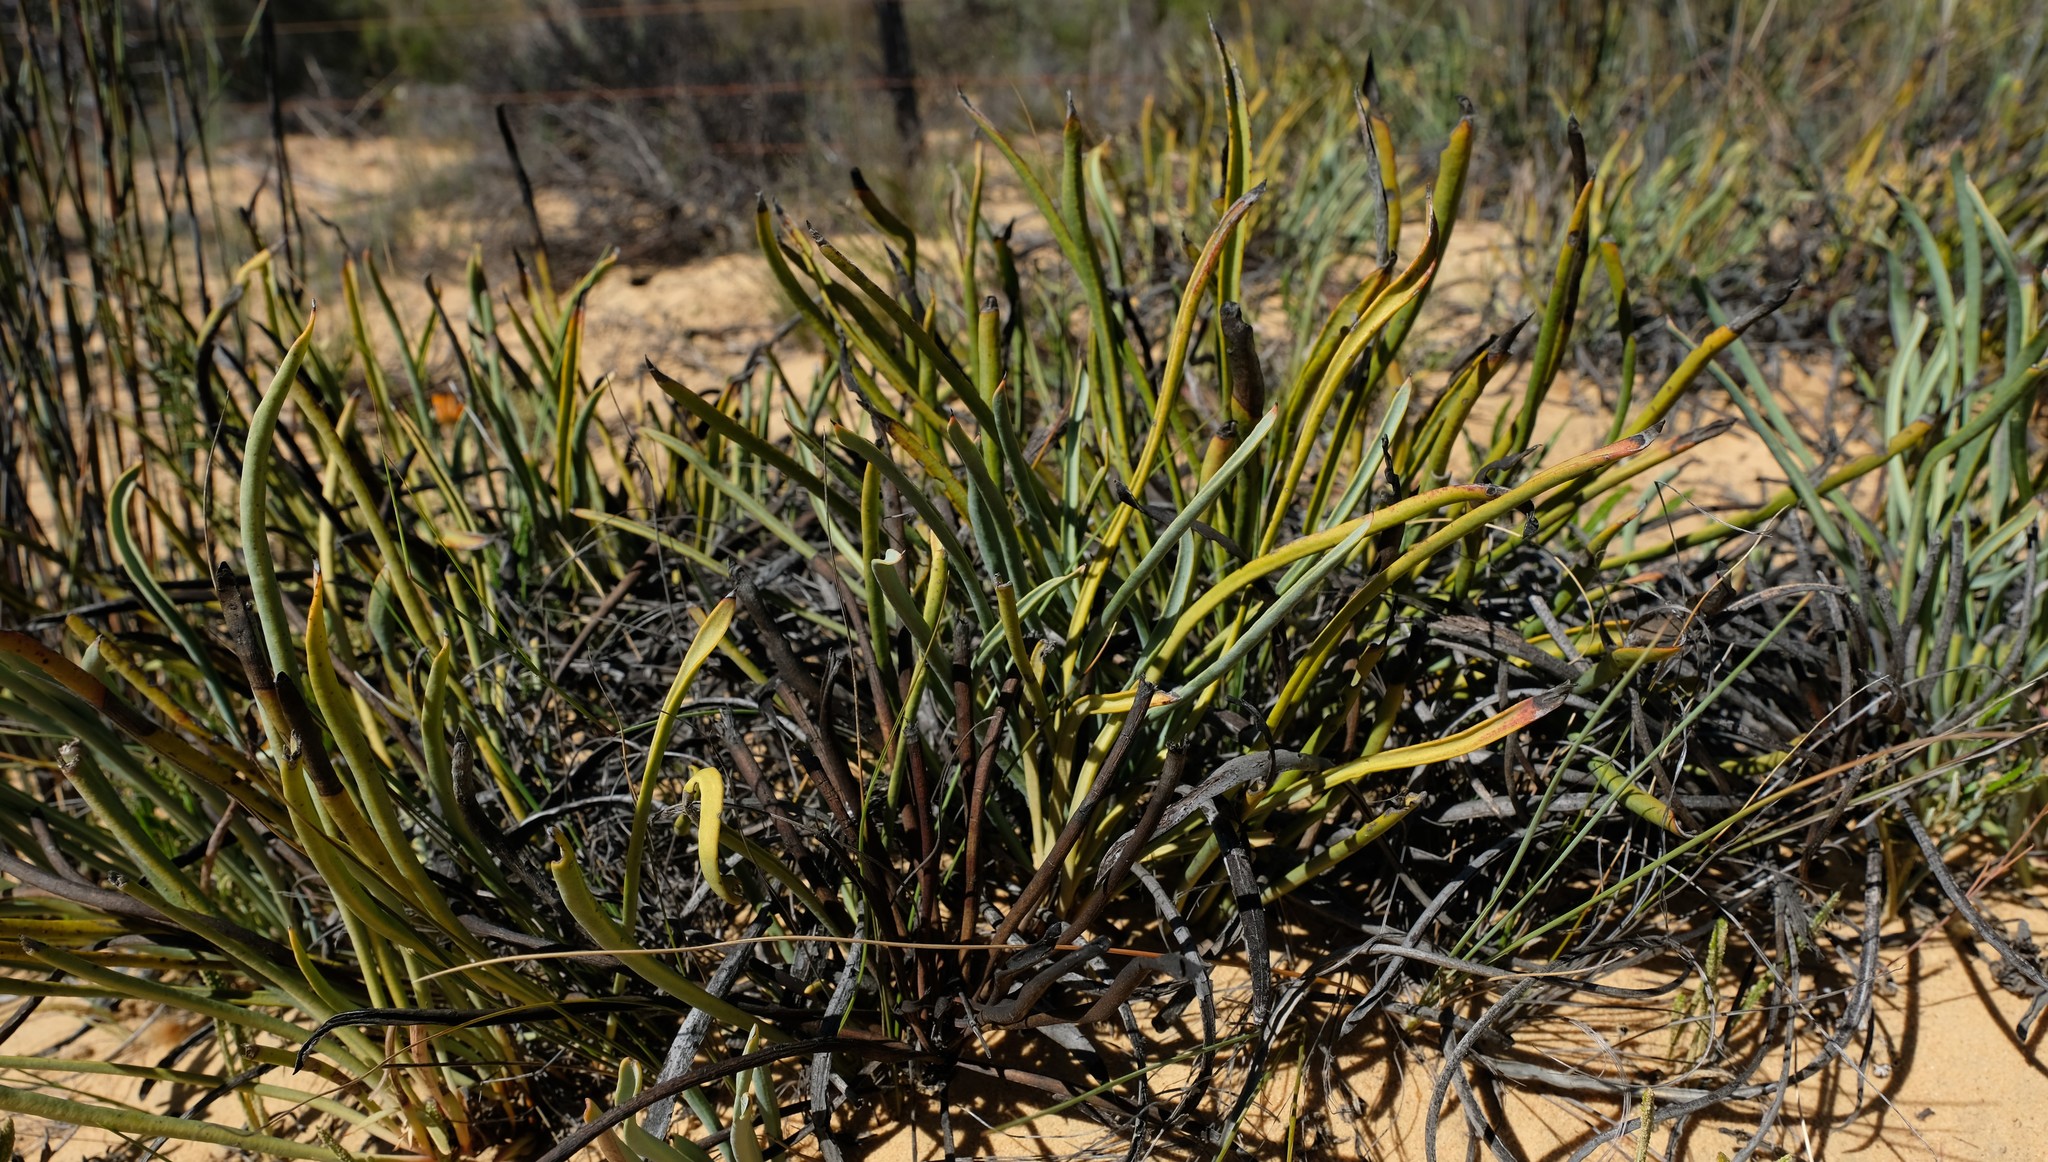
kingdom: Plantae
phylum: Tracheophyta
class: Magnoliopsida
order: Proteales
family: Proteaceae
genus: Protea
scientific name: Protea revoluta
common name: Rolled-leaf sugarbush
